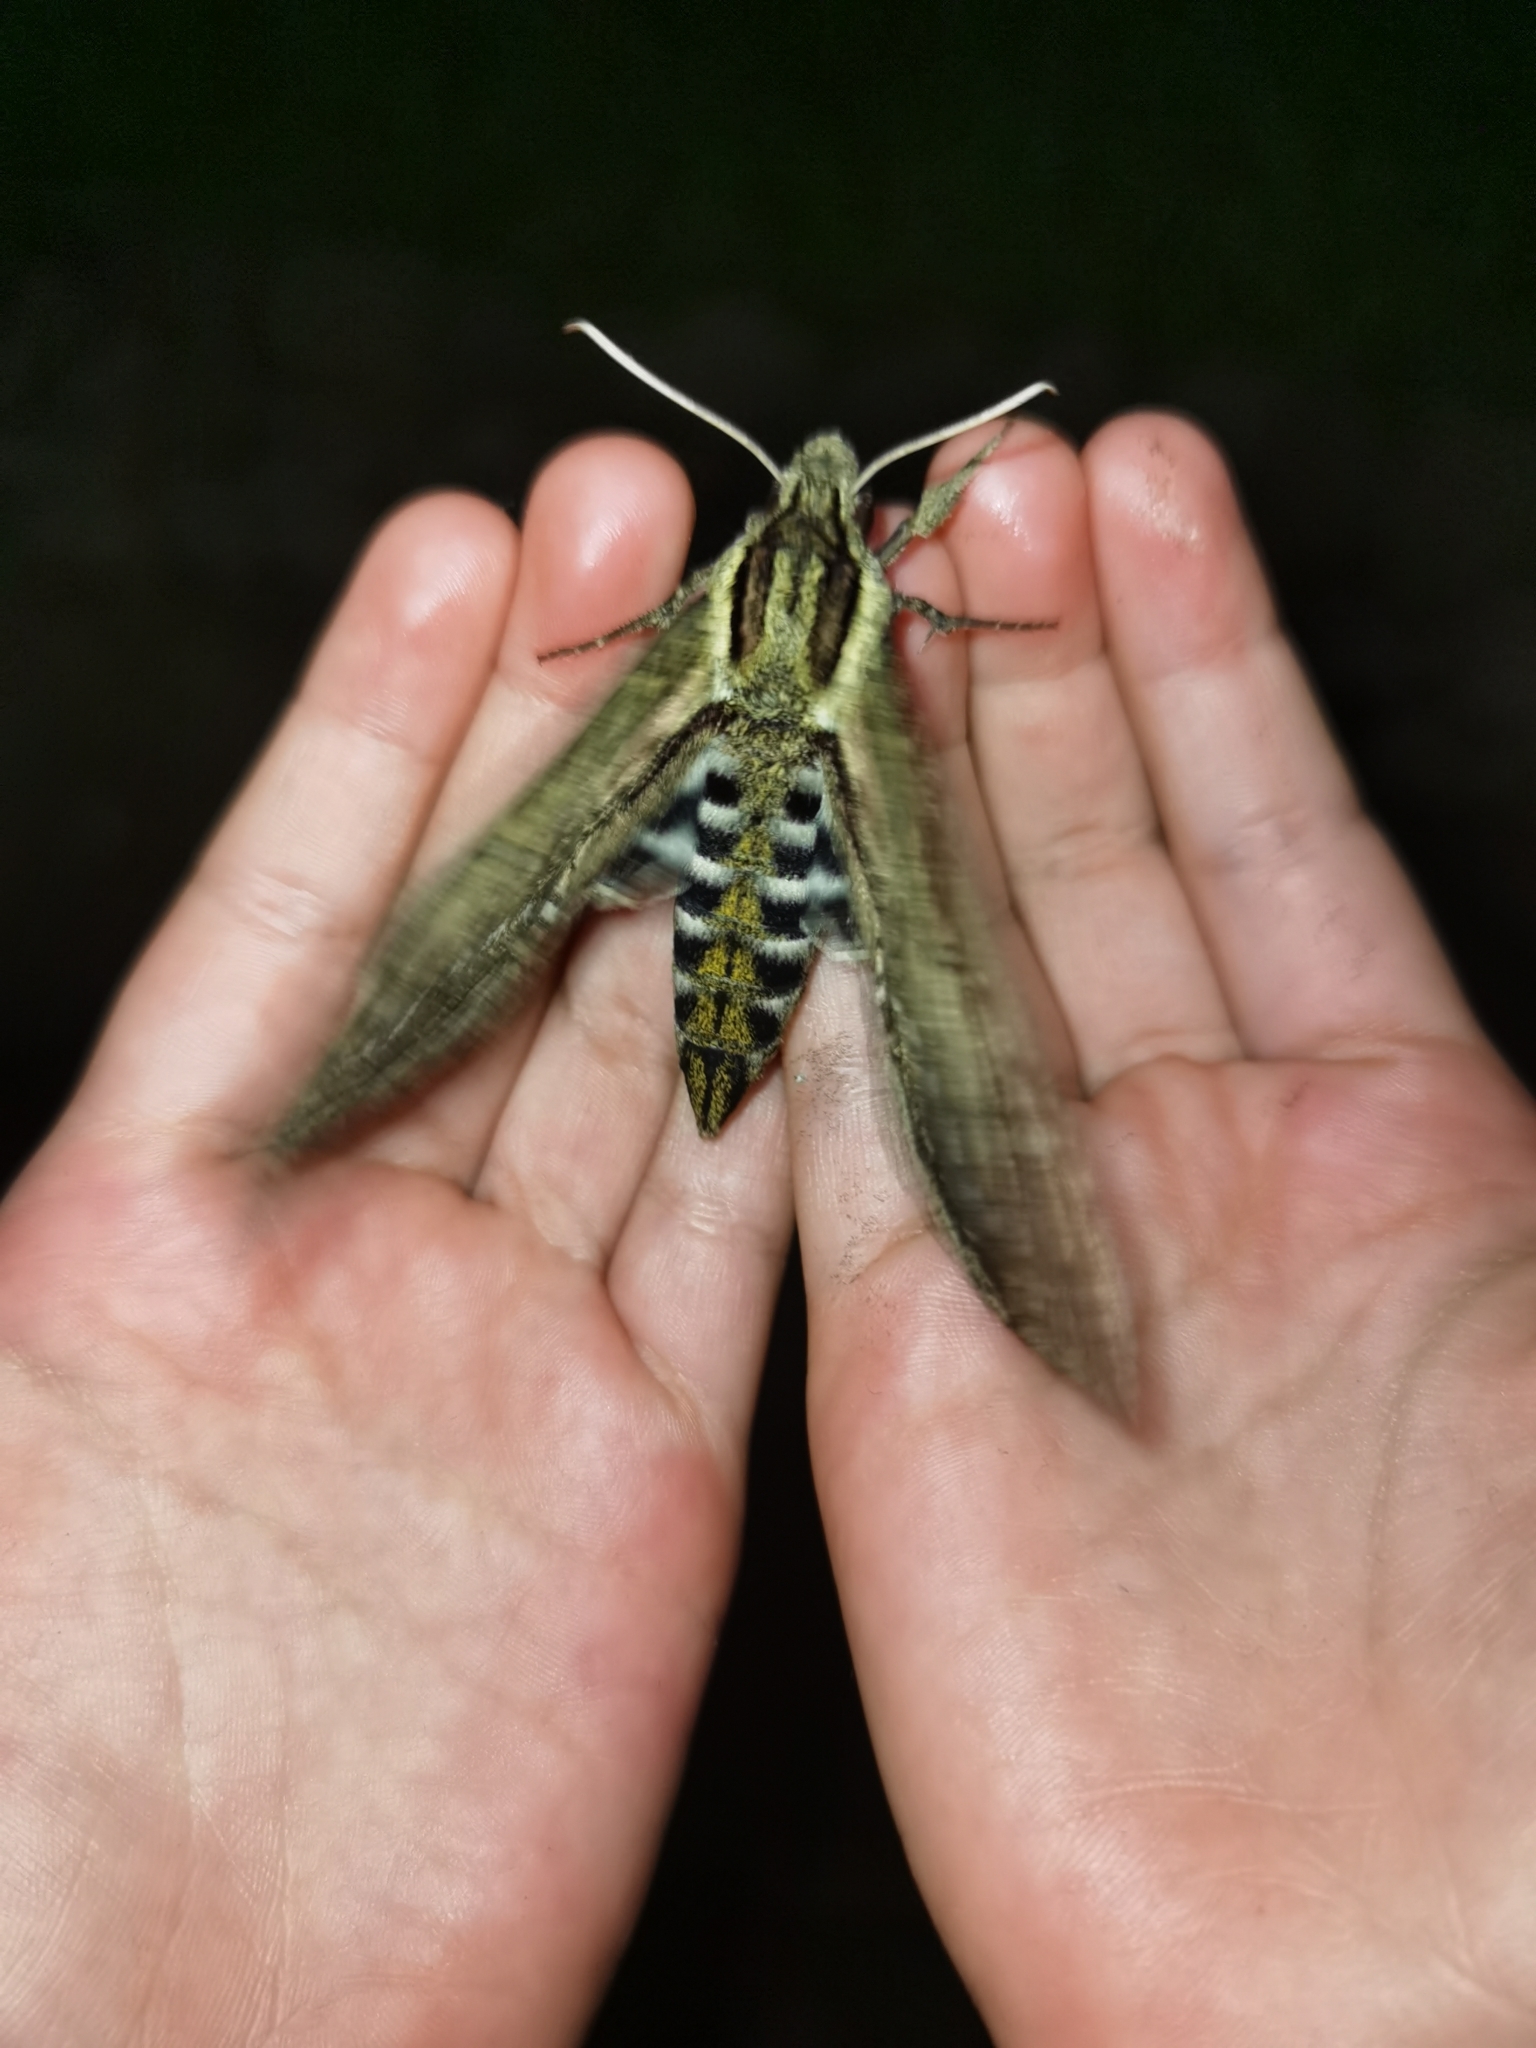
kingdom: Animalia
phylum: Arthropoda
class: Insecta
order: Lepidoptera
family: Sphingidae
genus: Lintneria
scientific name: Lintneria merops
